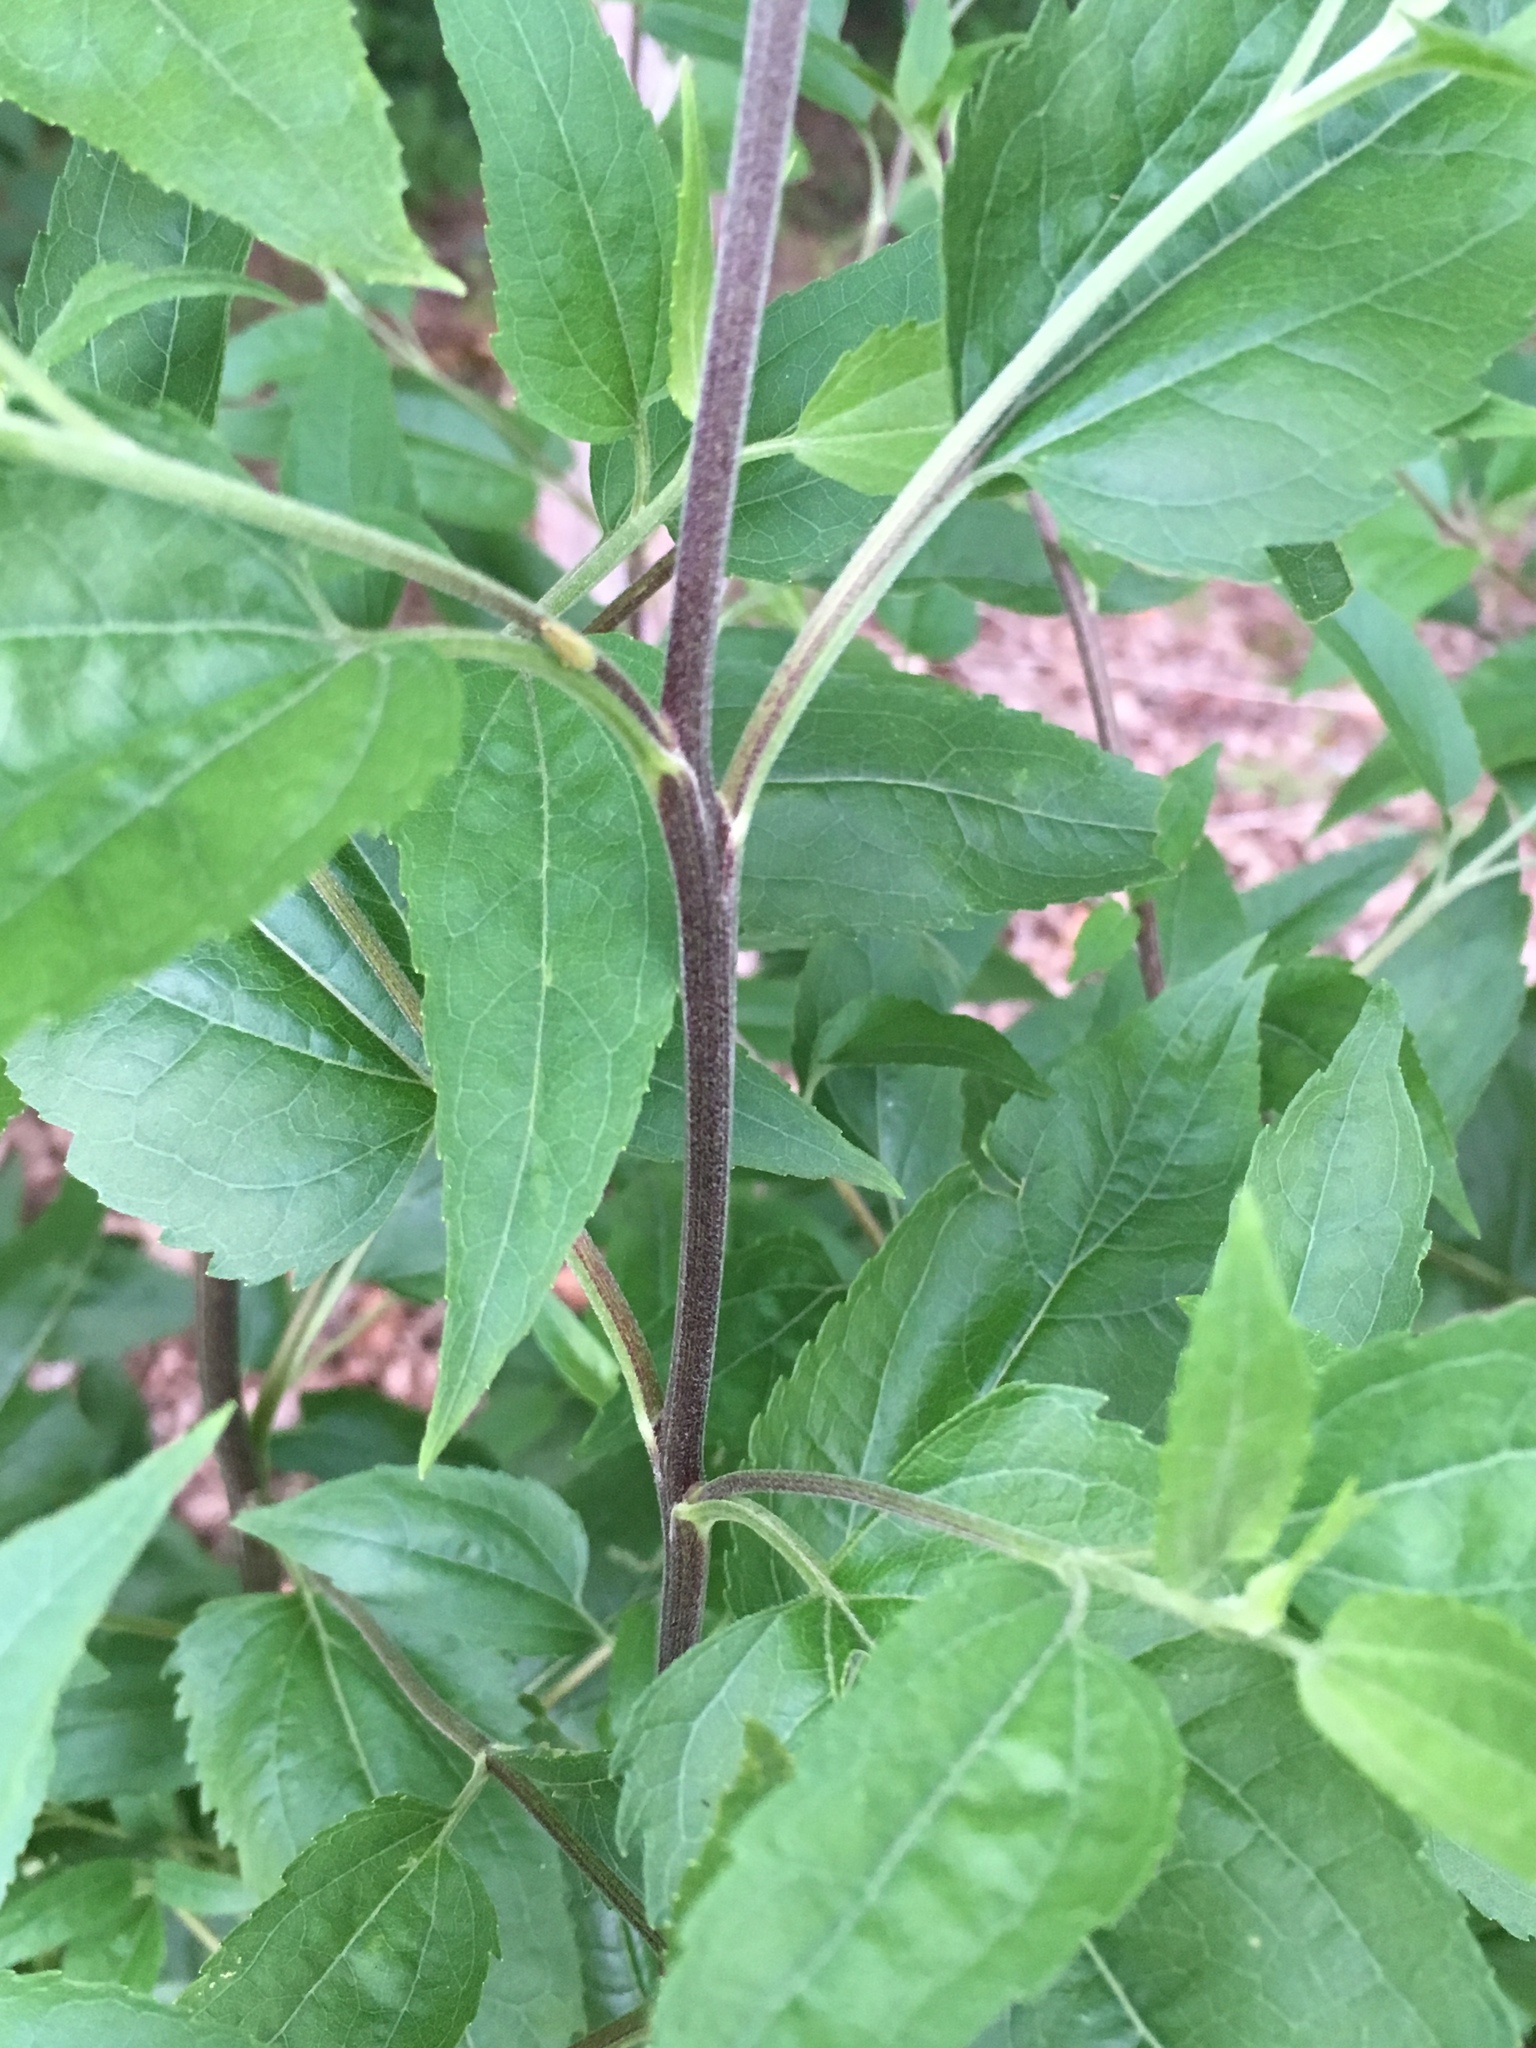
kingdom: Plantae
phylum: Tracheophyta
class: Magnoliopsida
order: Asterales
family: Asteraceae
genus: Eupatorium
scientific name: Eupatorium serotinum
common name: Late boneset
